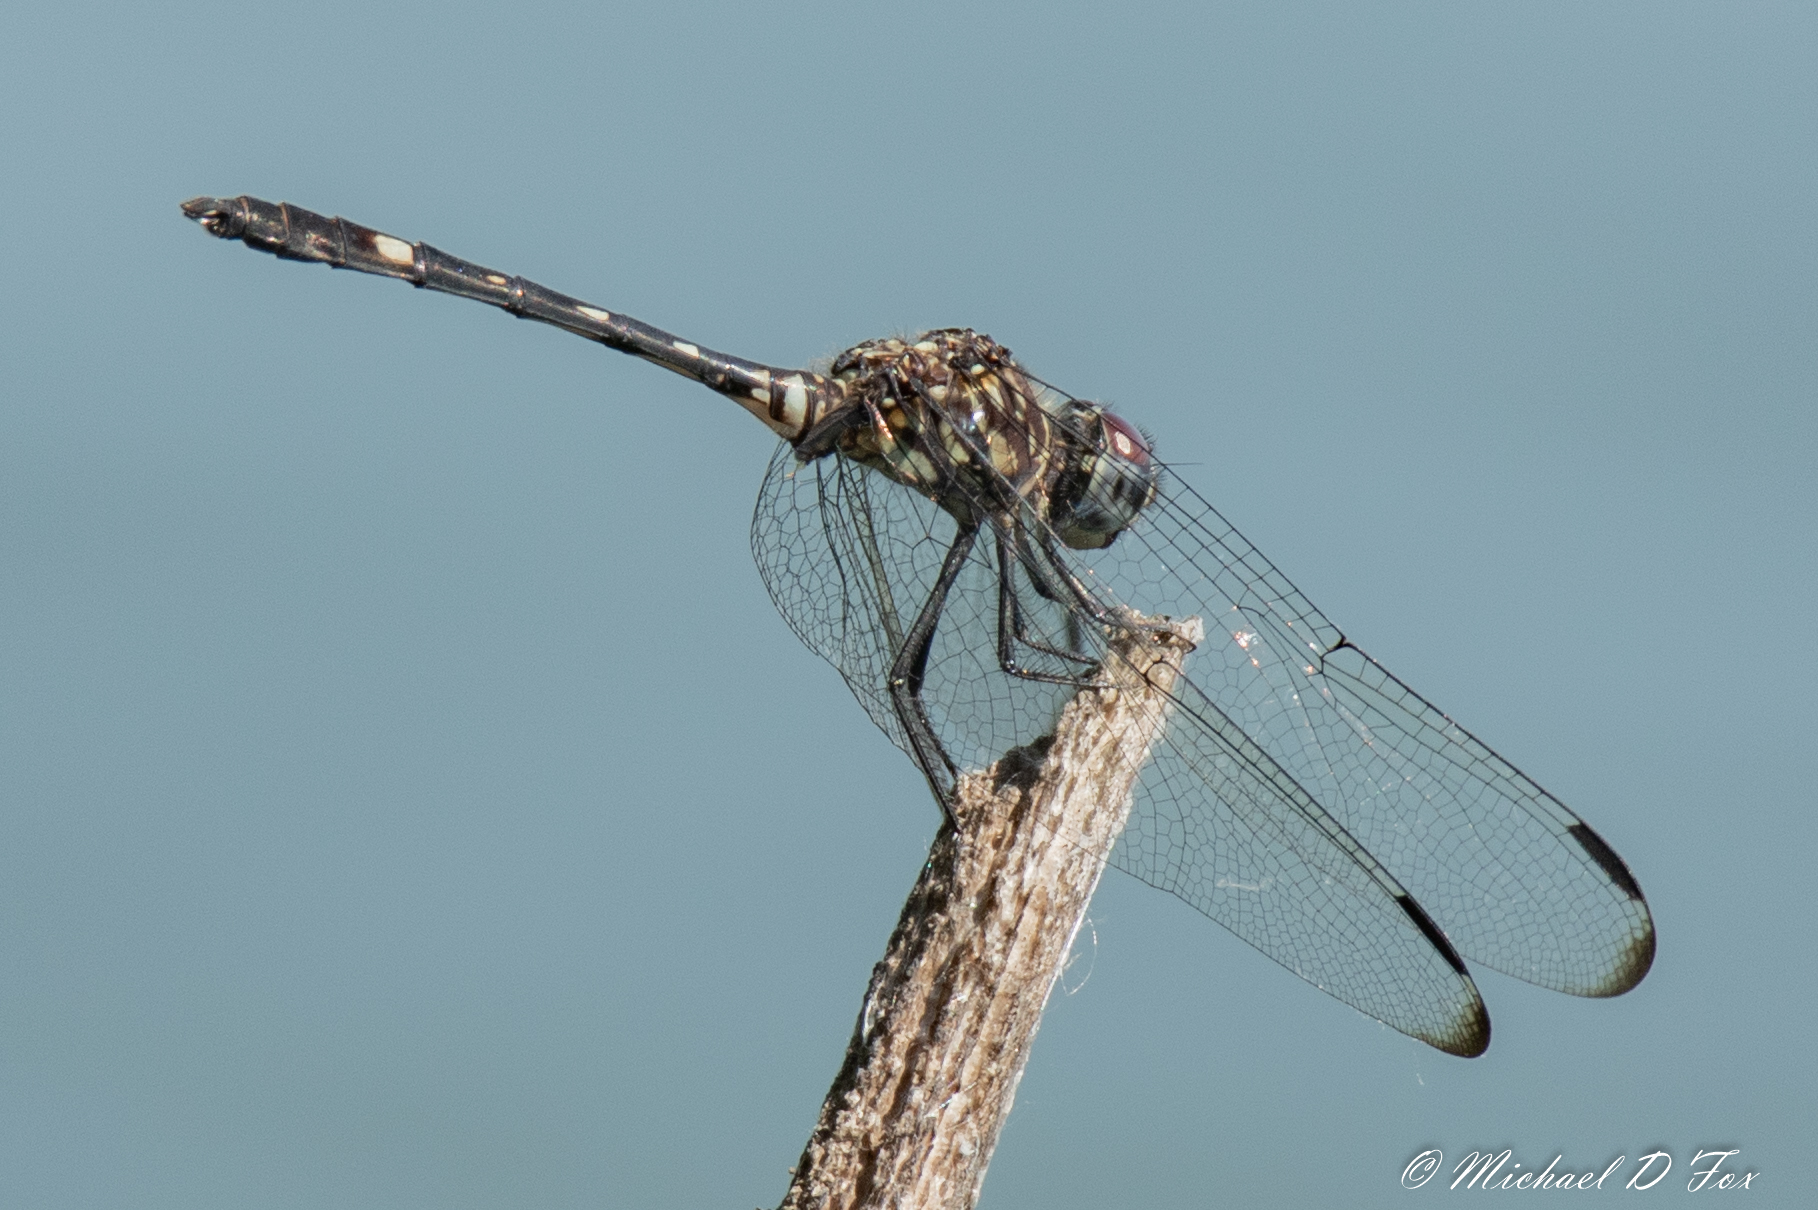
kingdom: Animalia
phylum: Arthropoda
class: Insecta
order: Odonata
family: Libellulidae
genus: Dythemis
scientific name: Dythemis velox
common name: Swift setwing
